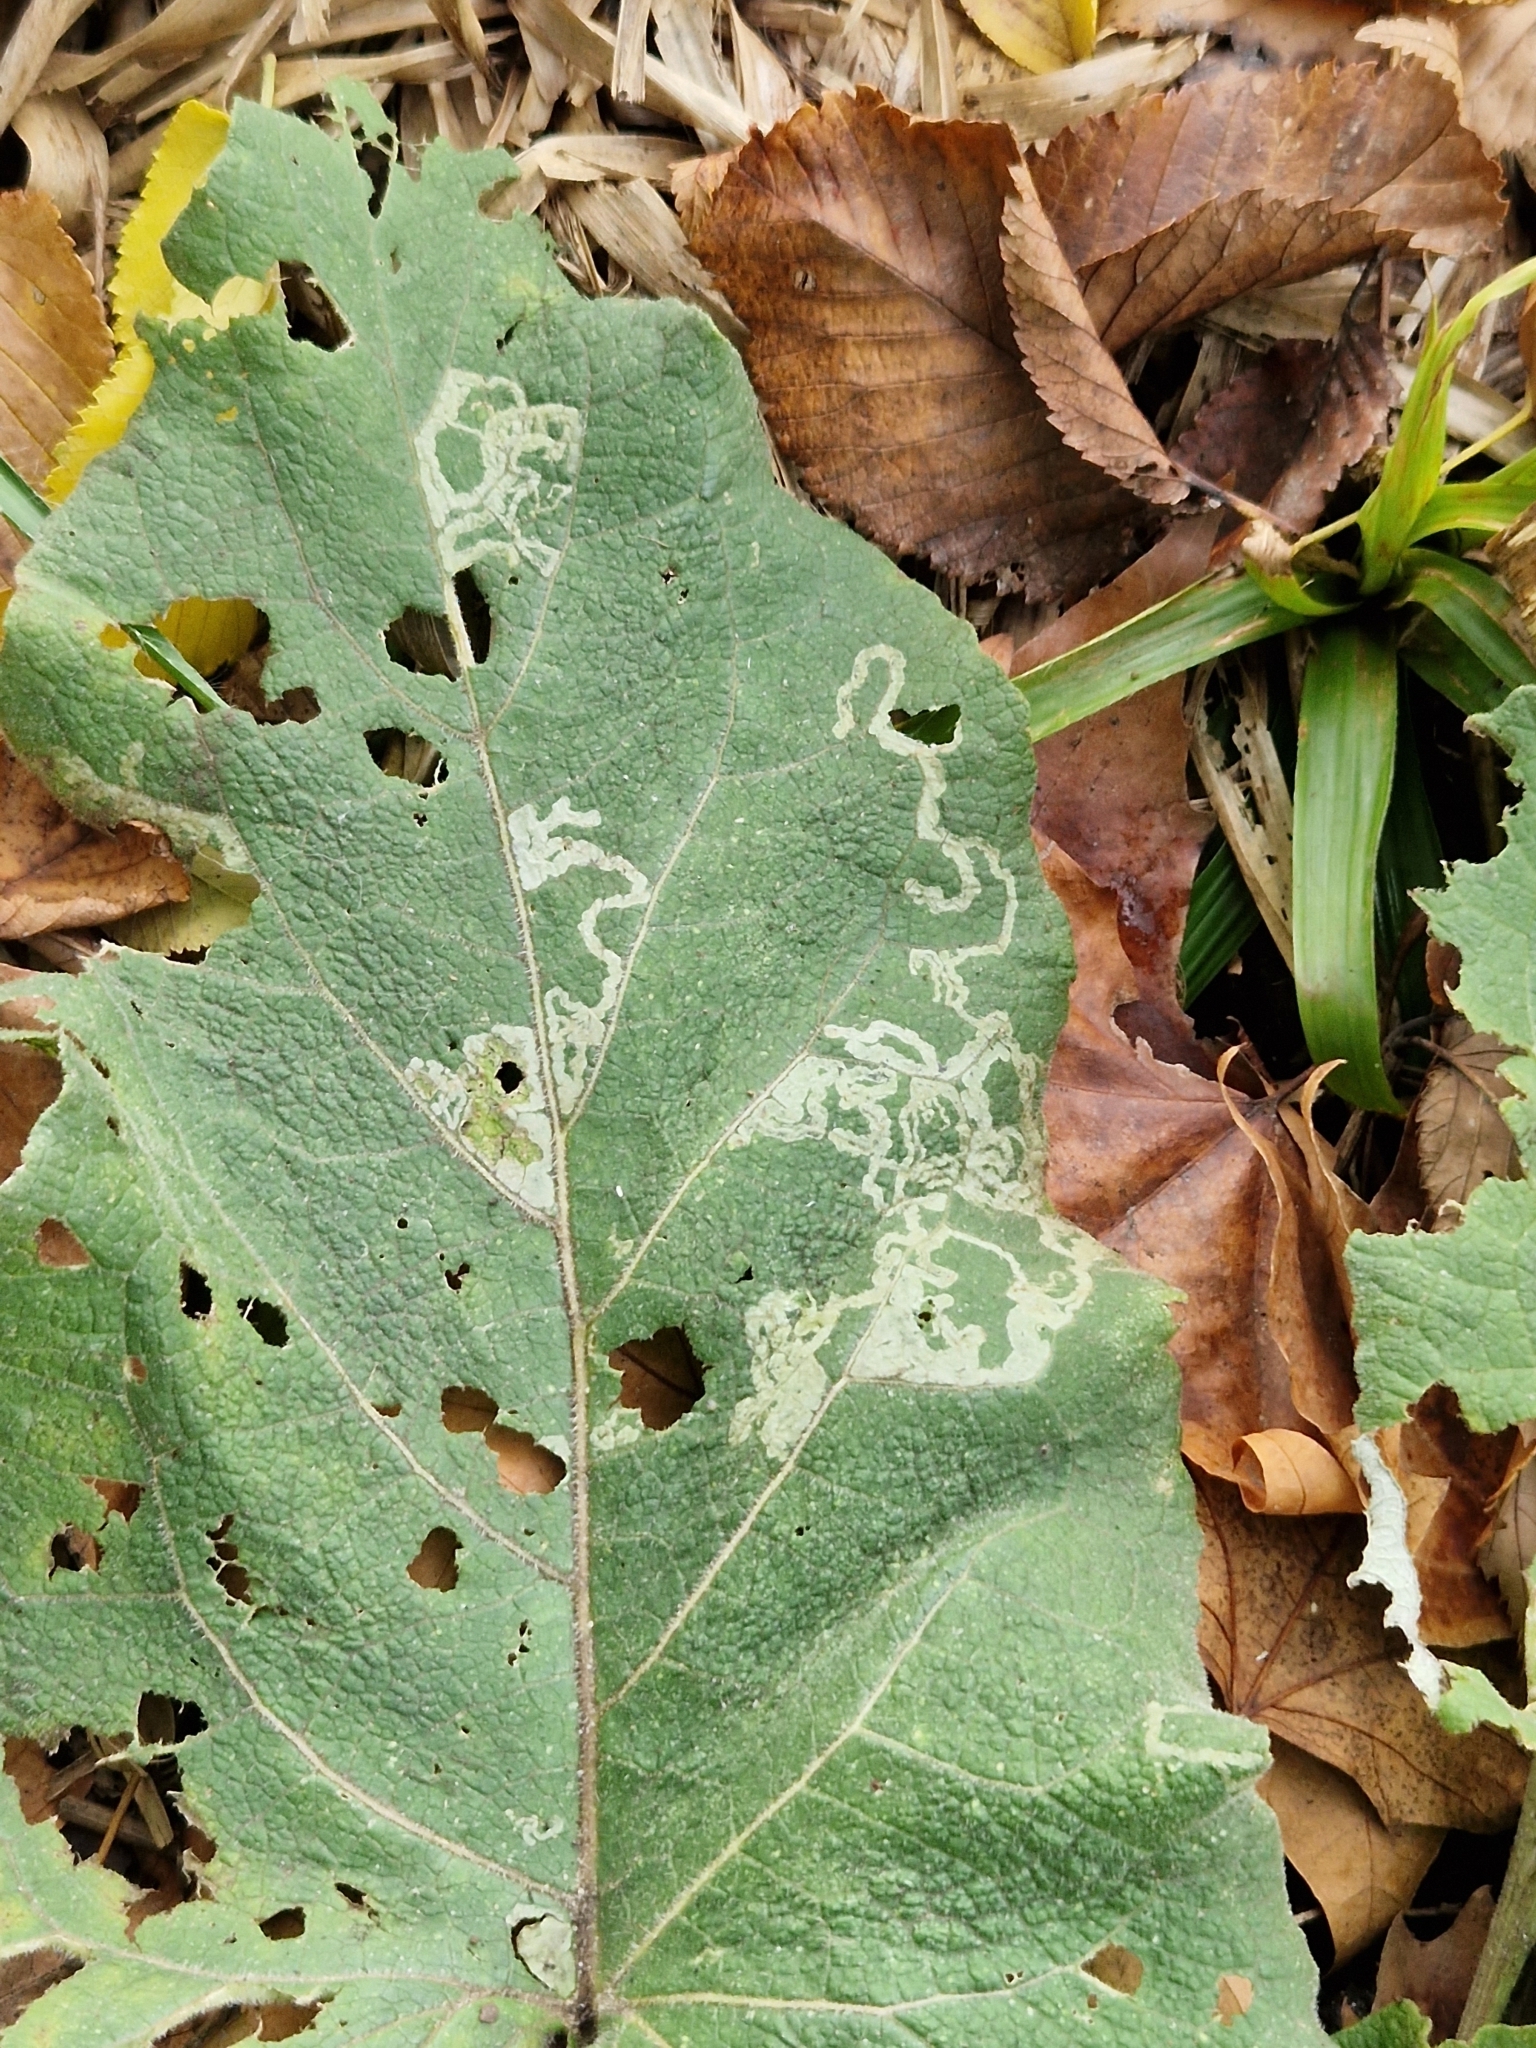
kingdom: Animalia
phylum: Arthropoda
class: Insecta
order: Diptera
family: Agromyzidae
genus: Phytomyza
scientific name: Phytomyza lappae
